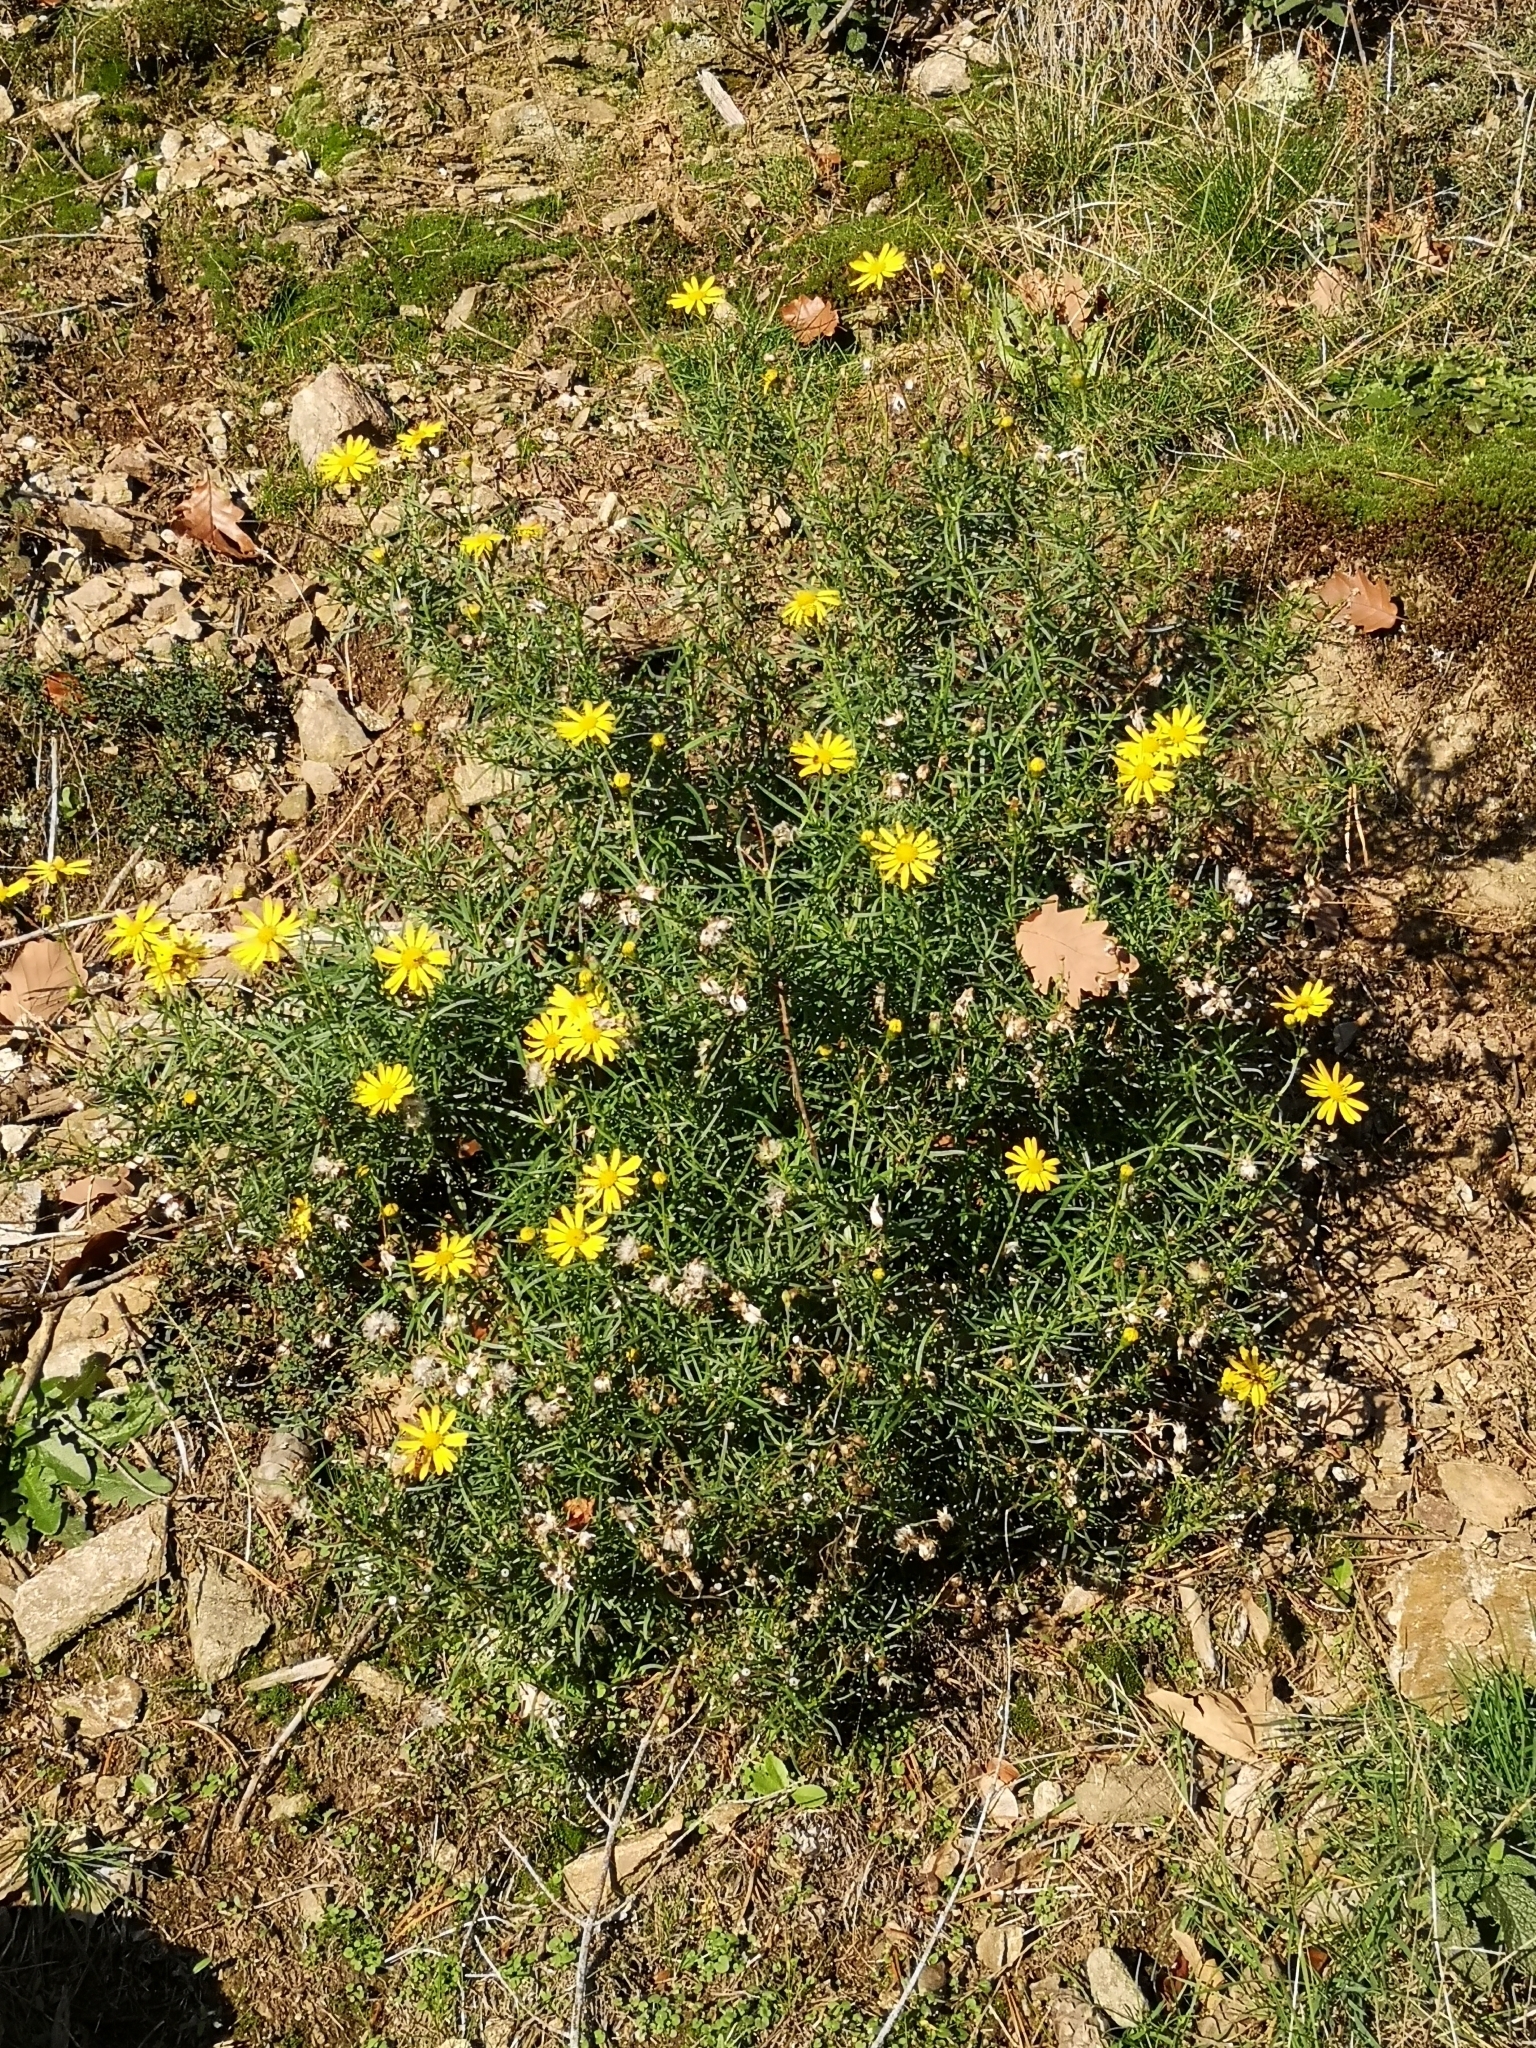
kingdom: Plantae
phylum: Tracheophyta
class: Magnoliopsida
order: Asterales
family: Asteraceae
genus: Senecio
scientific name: Senecio inaequidens
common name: Narrow-leaved ragwort
